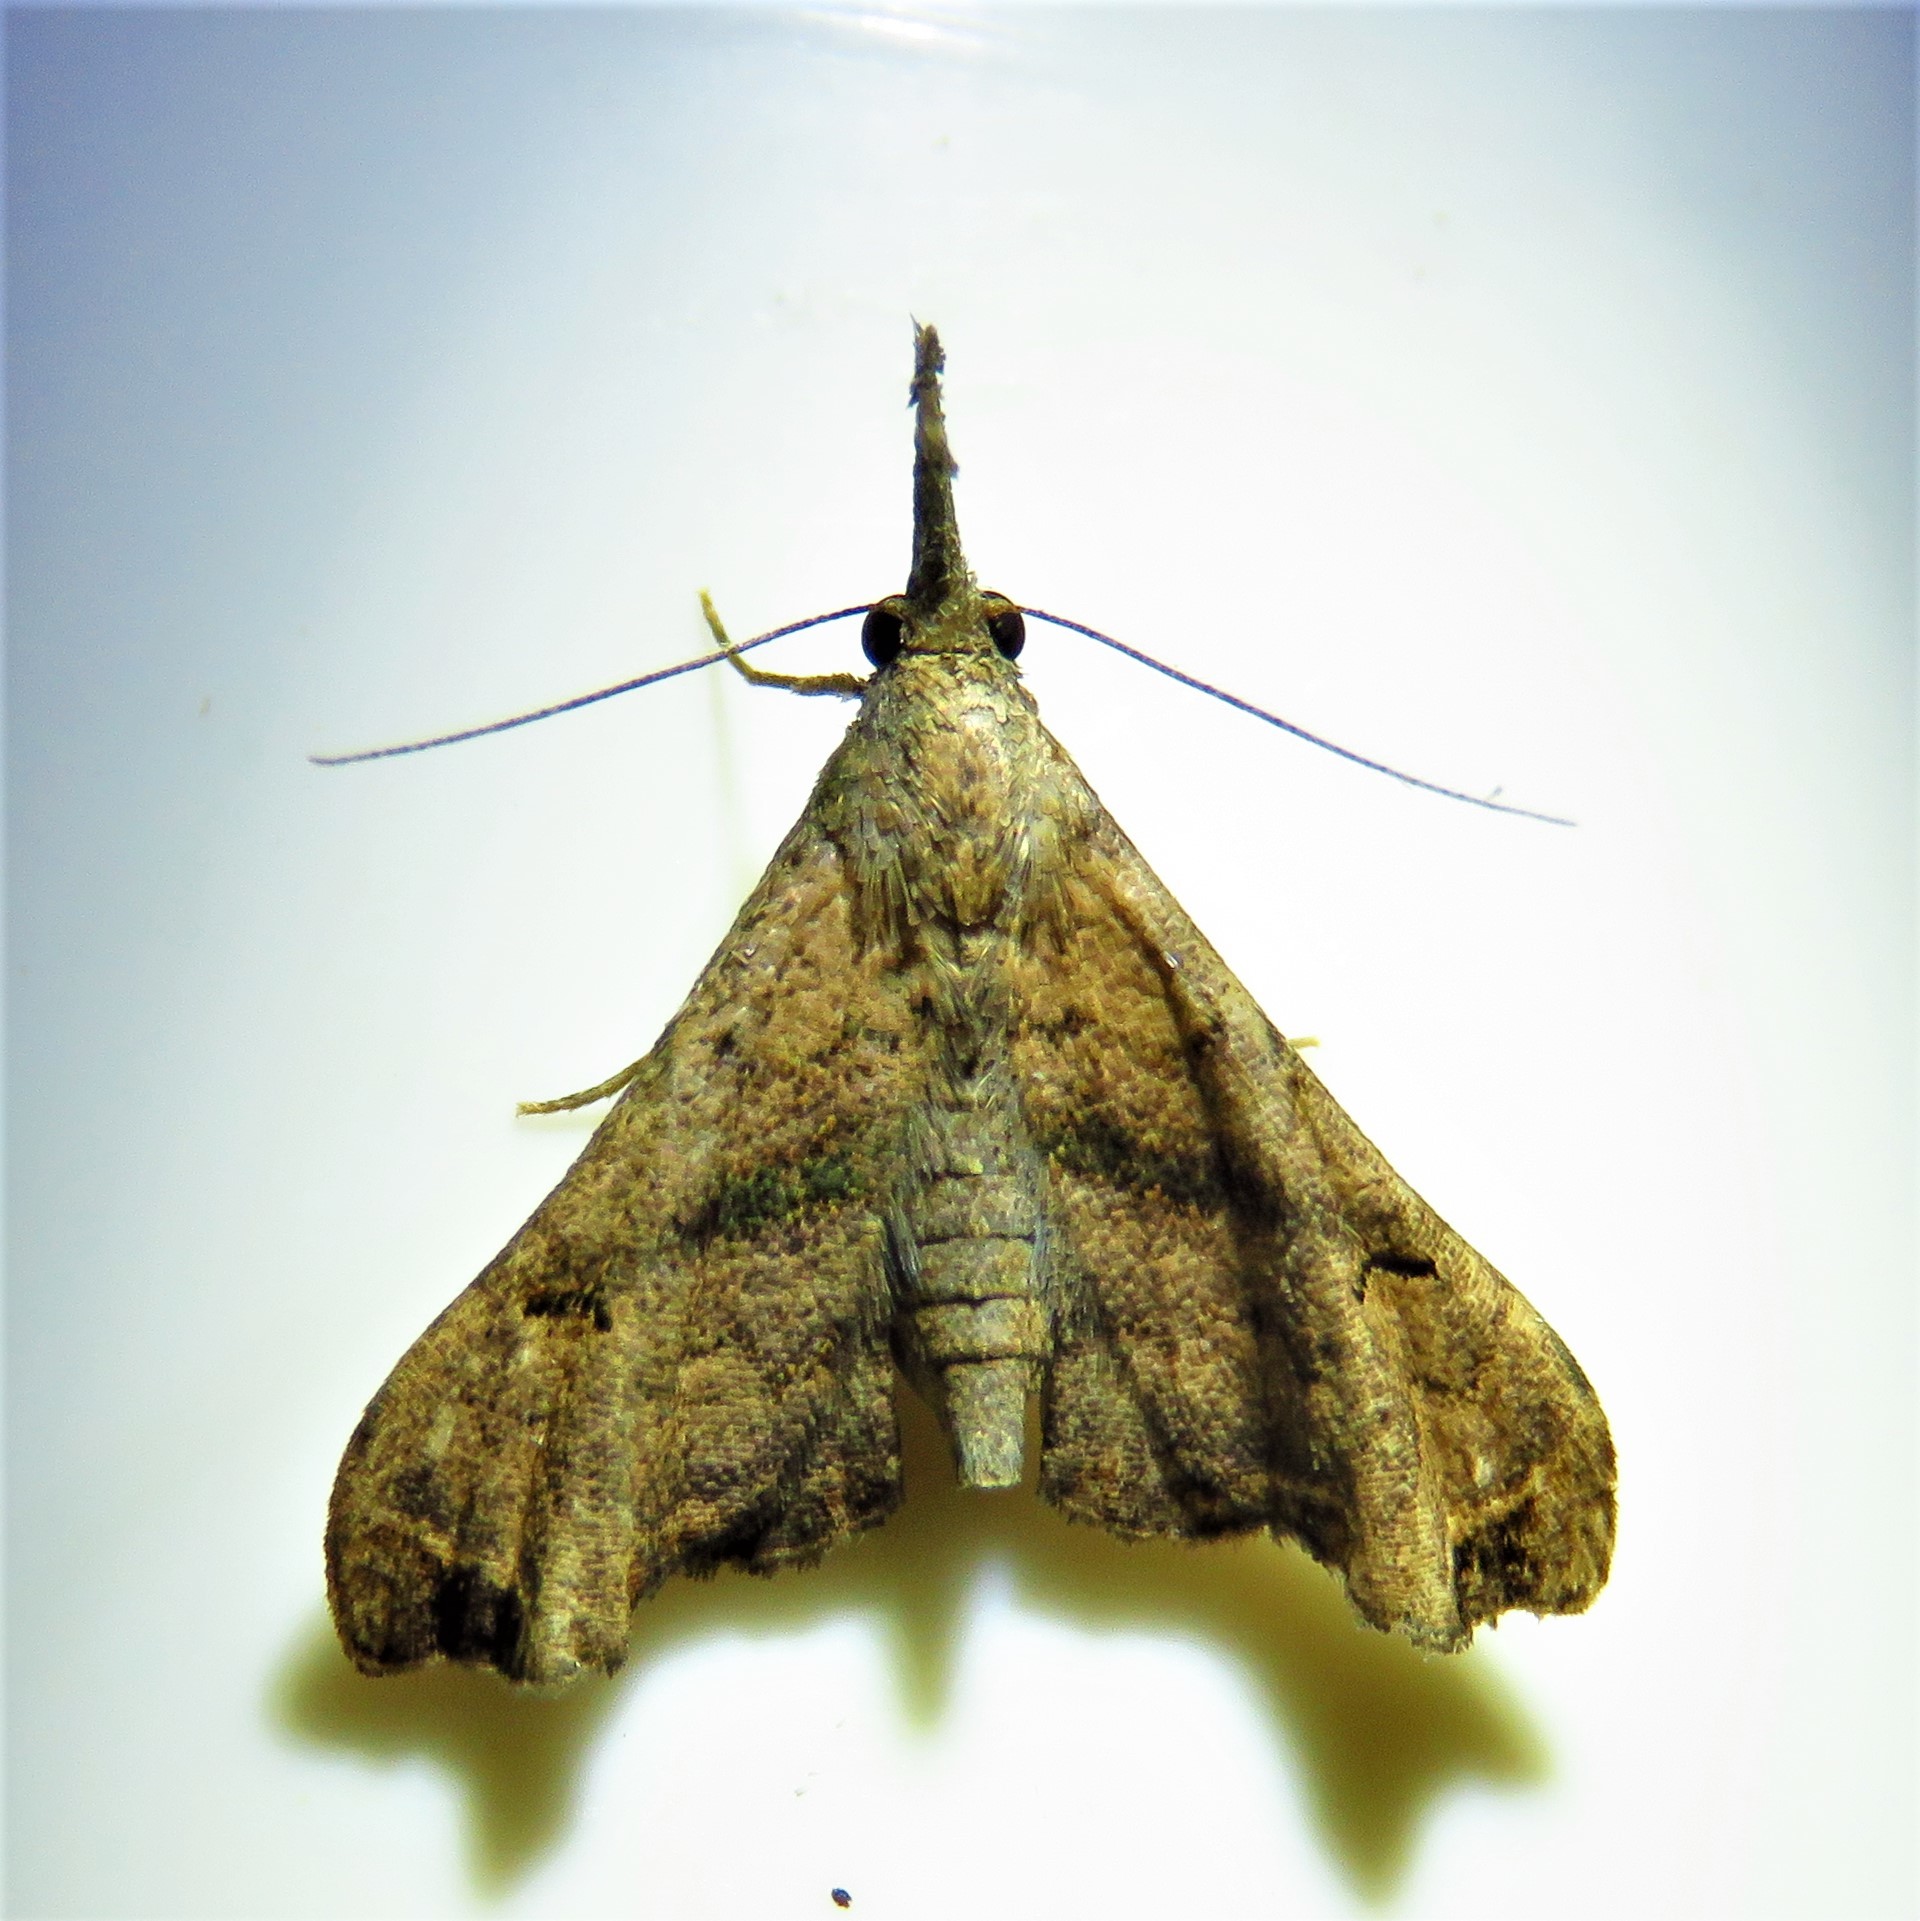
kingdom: Animalia
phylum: Arthropoda
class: Insecta
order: Lepidoptera
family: Erebidae
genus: Palthis
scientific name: Palthis asopialis
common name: Faint-spotted palthis moth
